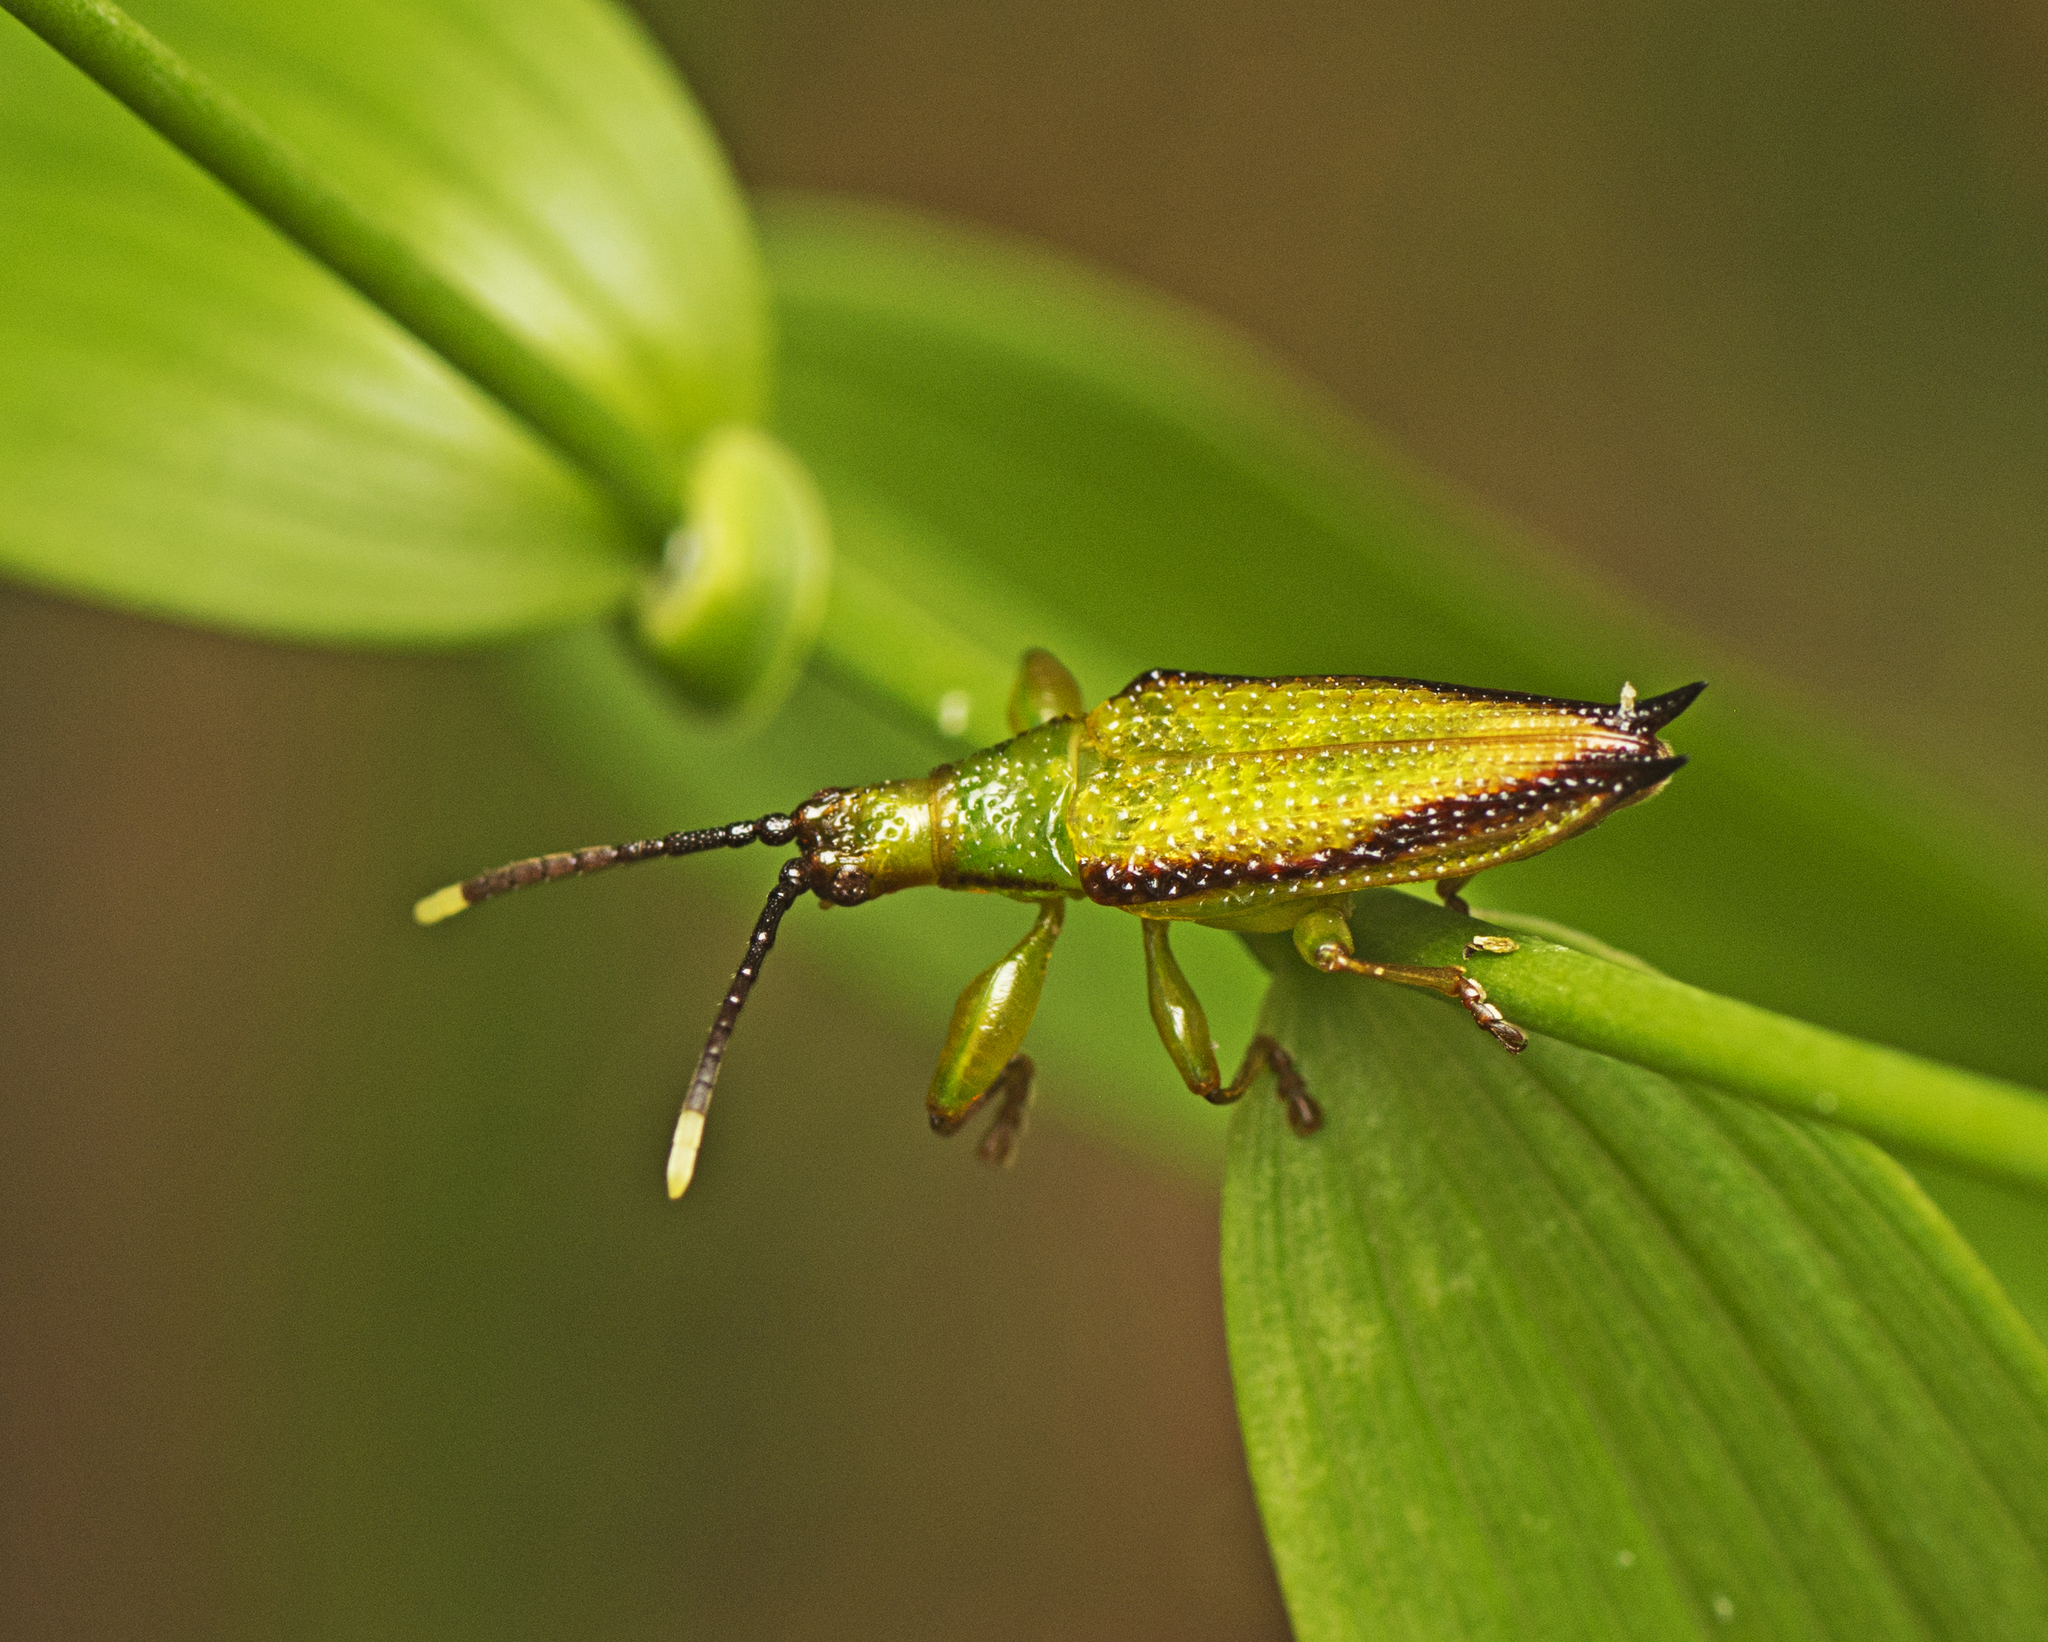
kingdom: Animalia
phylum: Arthropoda
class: Insecta
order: Coleoptera
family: Chrysomelidae
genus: Aproida
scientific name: Aproida balyi
